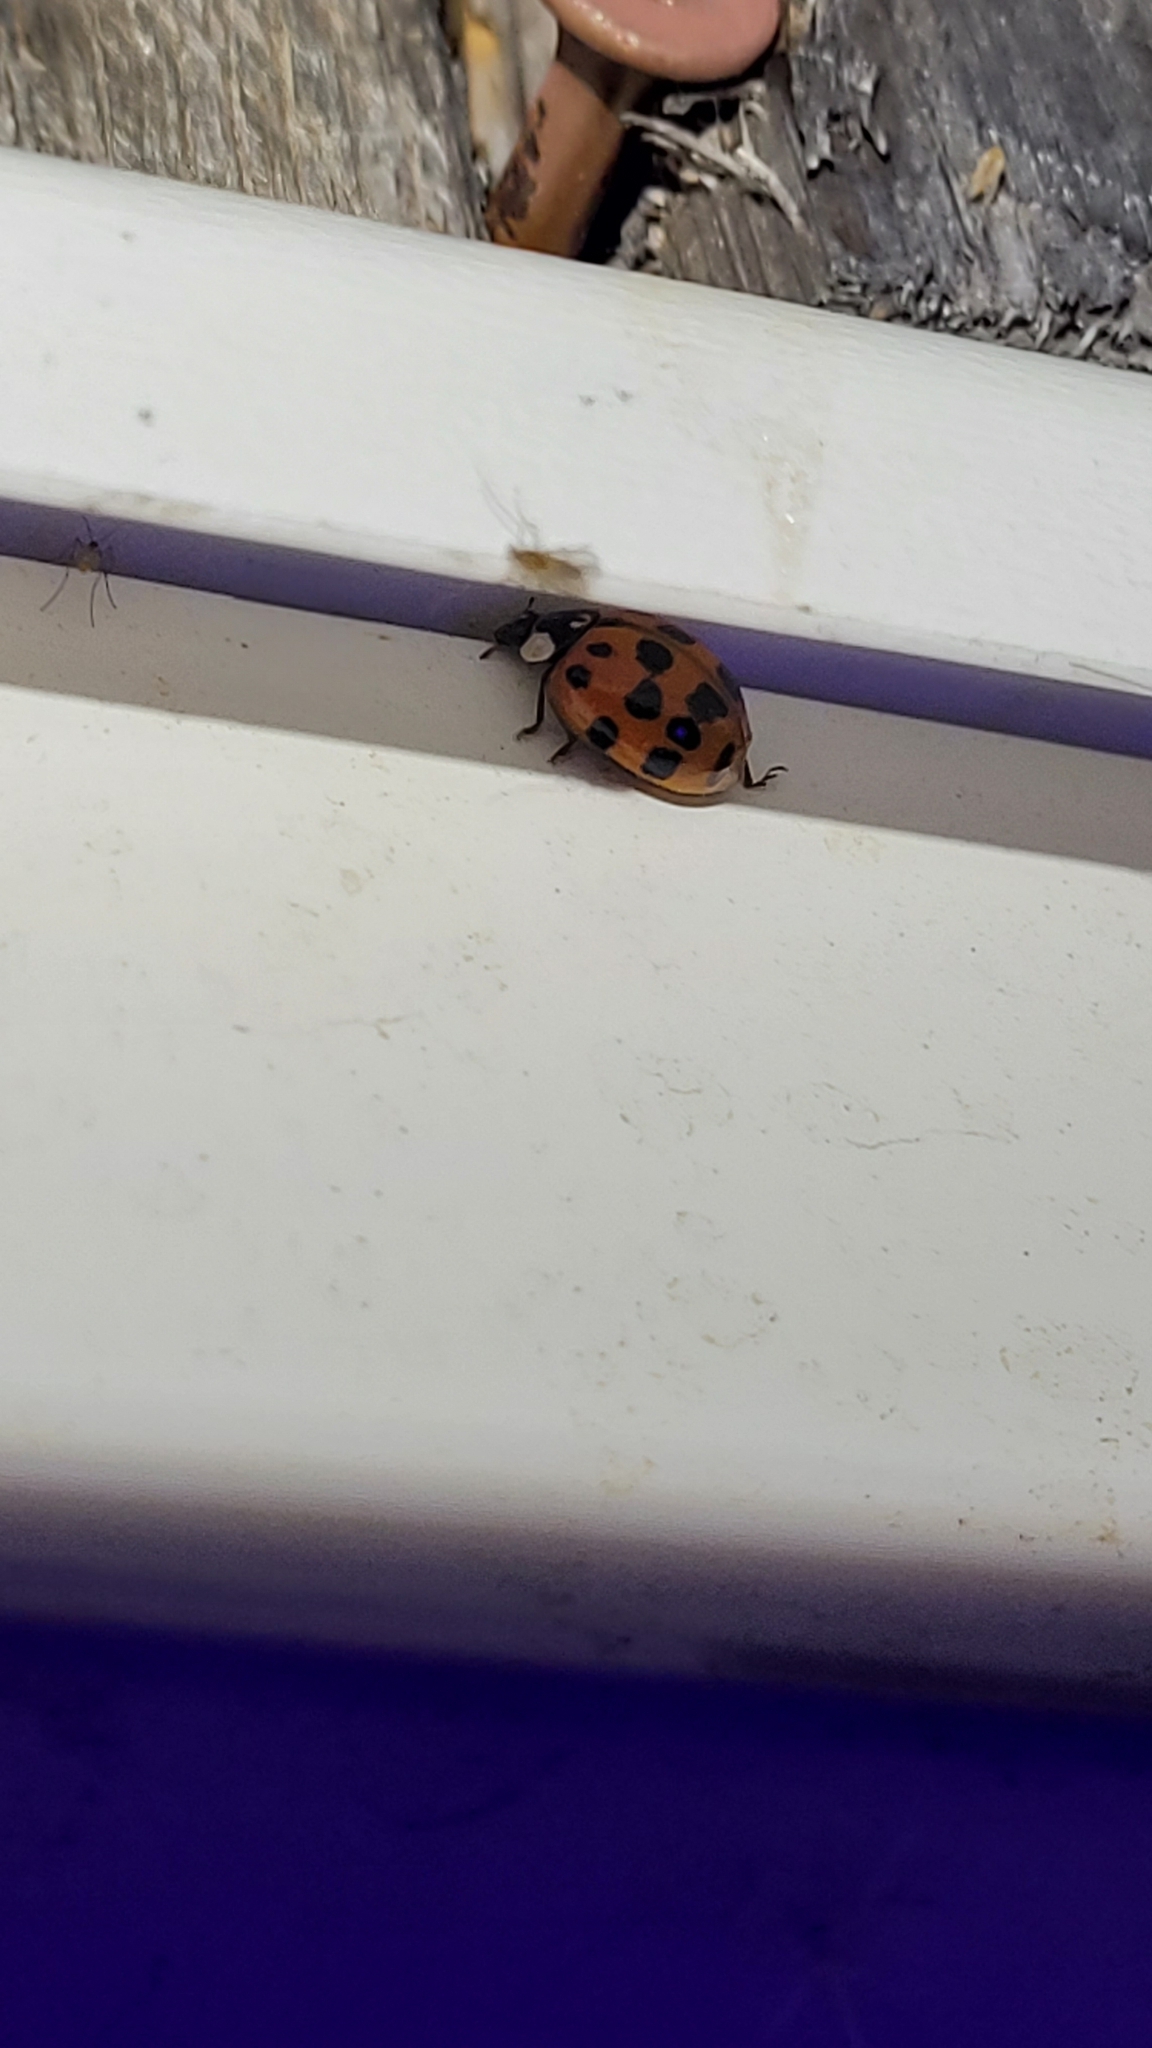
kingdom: Animalia
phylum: Arthropoda
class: Insecta
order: Coleoptera
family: Coccinellidae
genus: Harmonia
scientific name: Harmonia axyridis
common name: Harlequin ladybird
